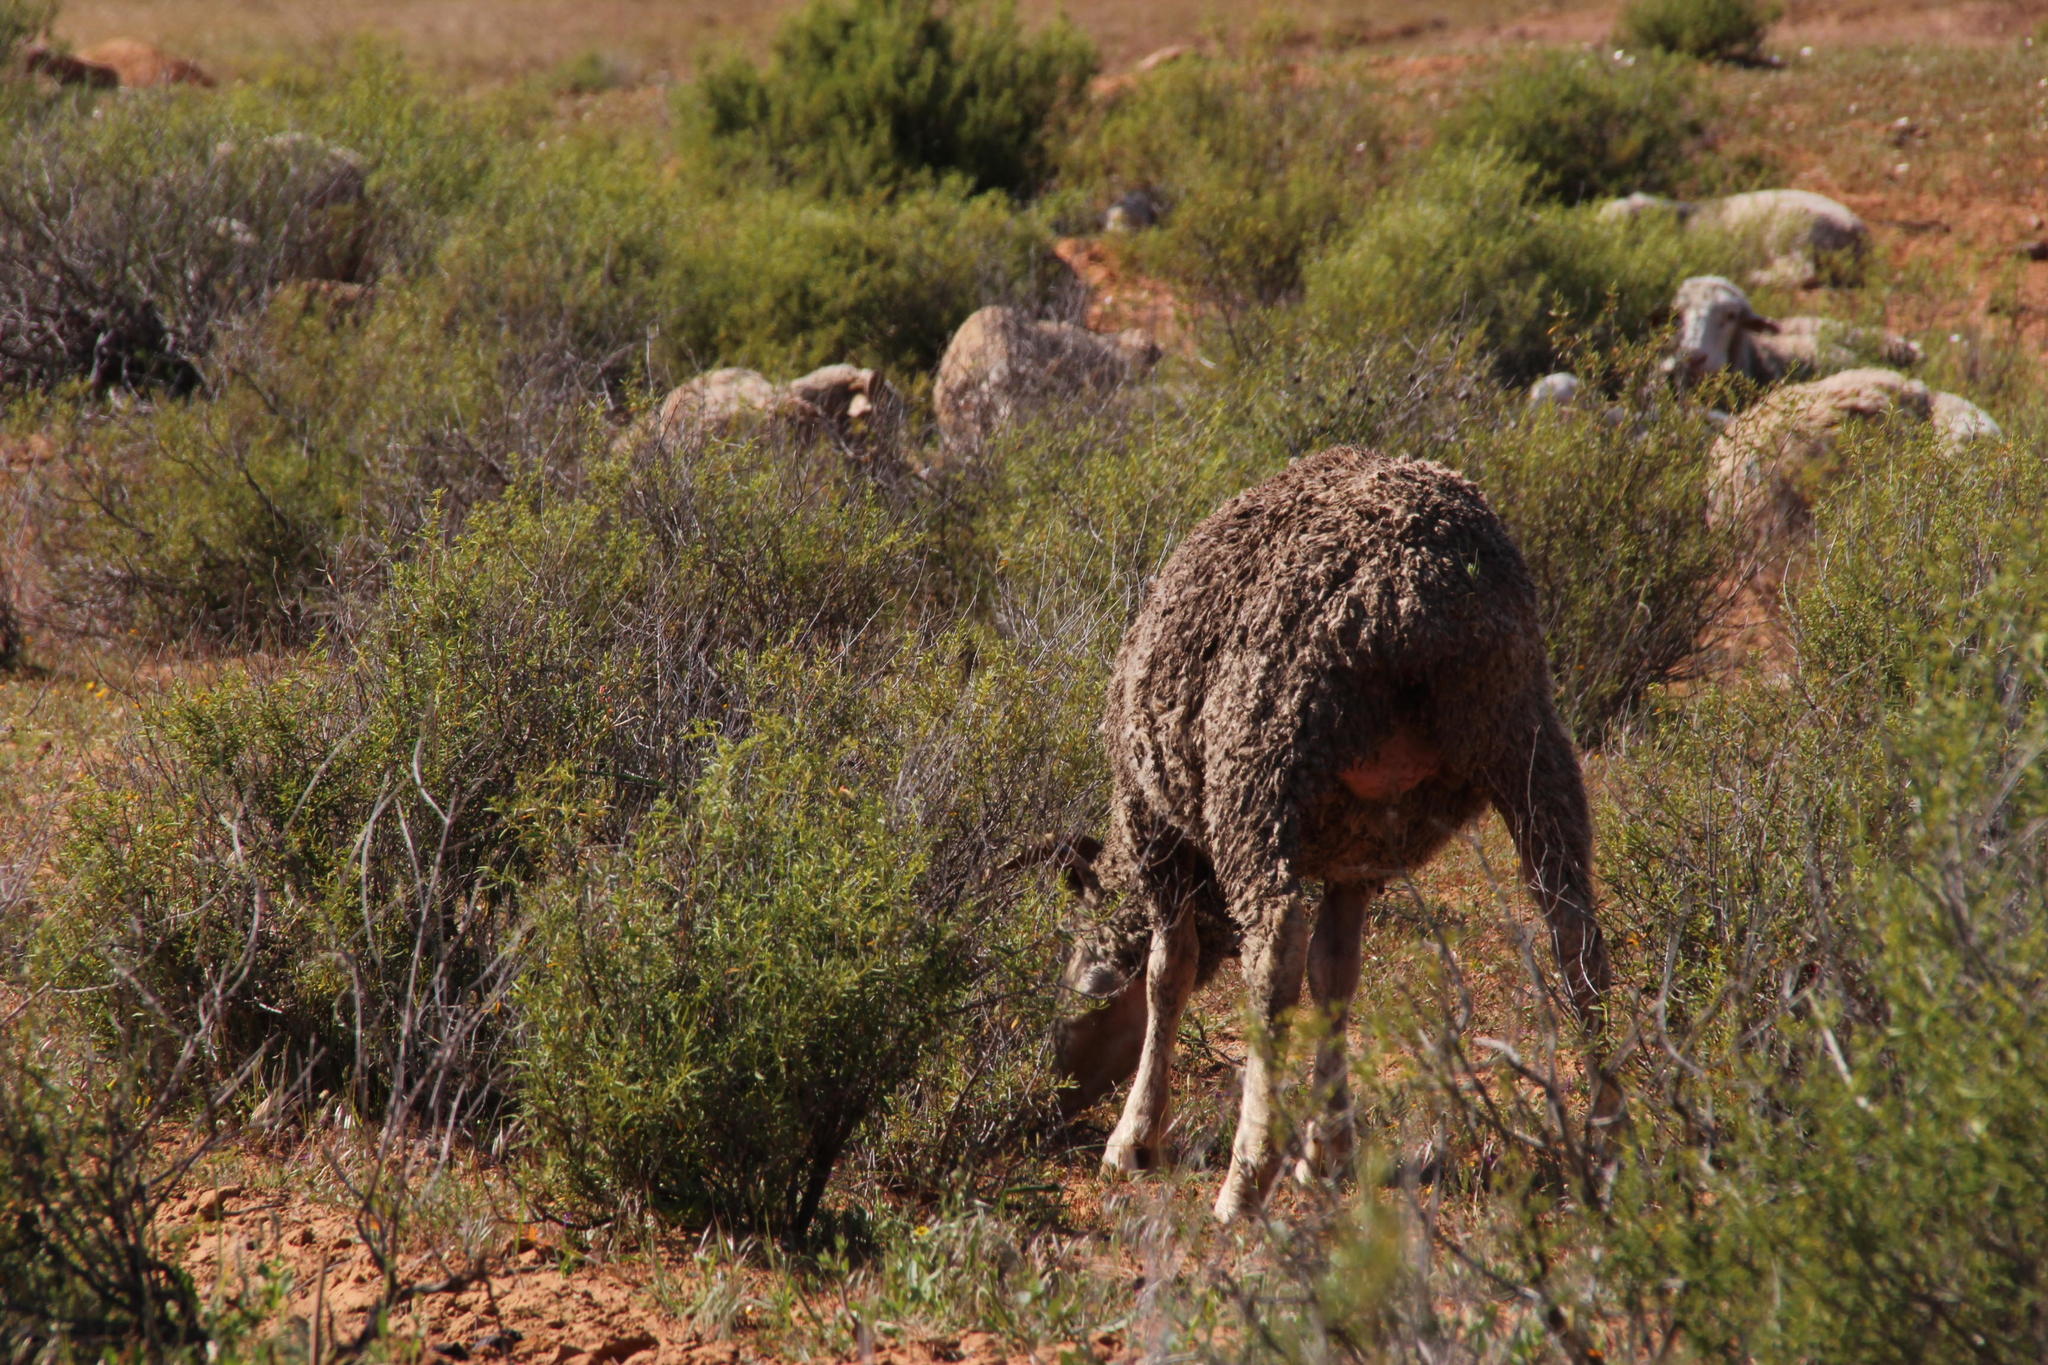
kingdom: Plantae
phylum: Tracheophyta
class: Magnoliopsida
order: Caryophyllales
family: Aizoaceae
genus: Aizoon
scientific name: Aizoon africanum
